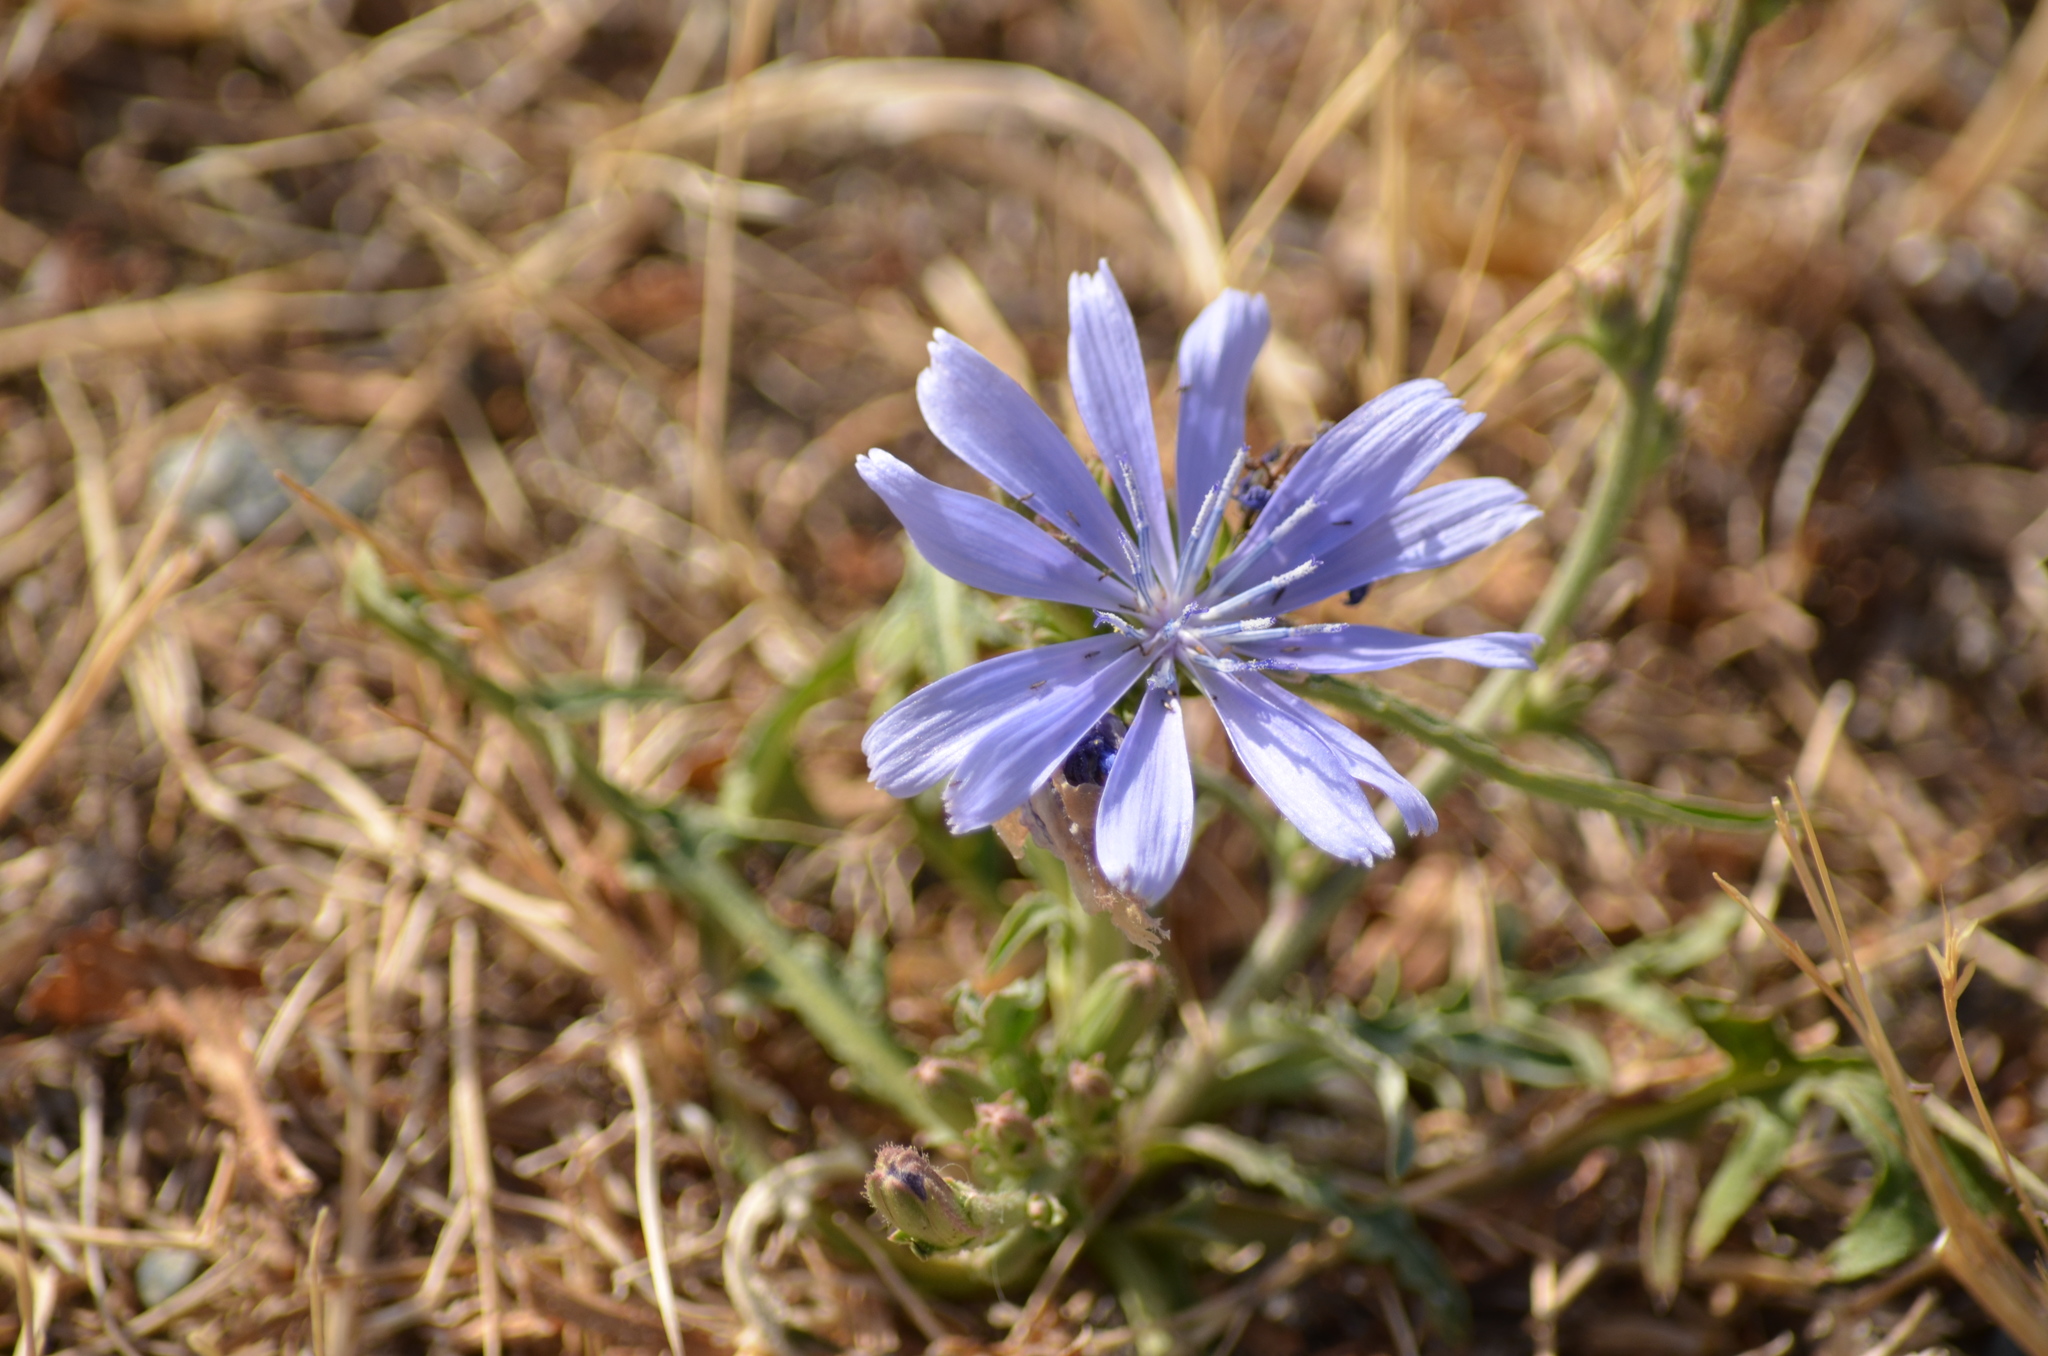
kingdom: Plantae
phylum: Tracheophyta
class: Magnoliopsida
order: Asterales
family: Asteraceae
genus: Cichorium
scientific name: Cichorium intybus
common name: Chicory
